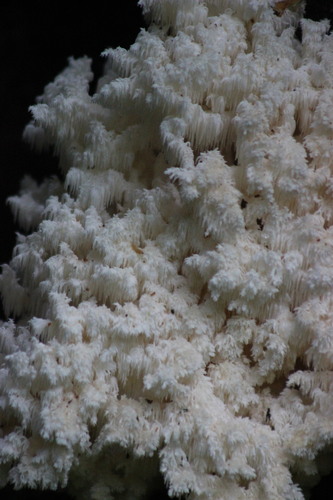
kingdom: Fungi
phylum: Basidiomycota
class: Agaricomycetes
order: Russulales
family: Hericiaceae
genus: Hericium
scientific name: Hericium coralloides
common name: Coral tooth
